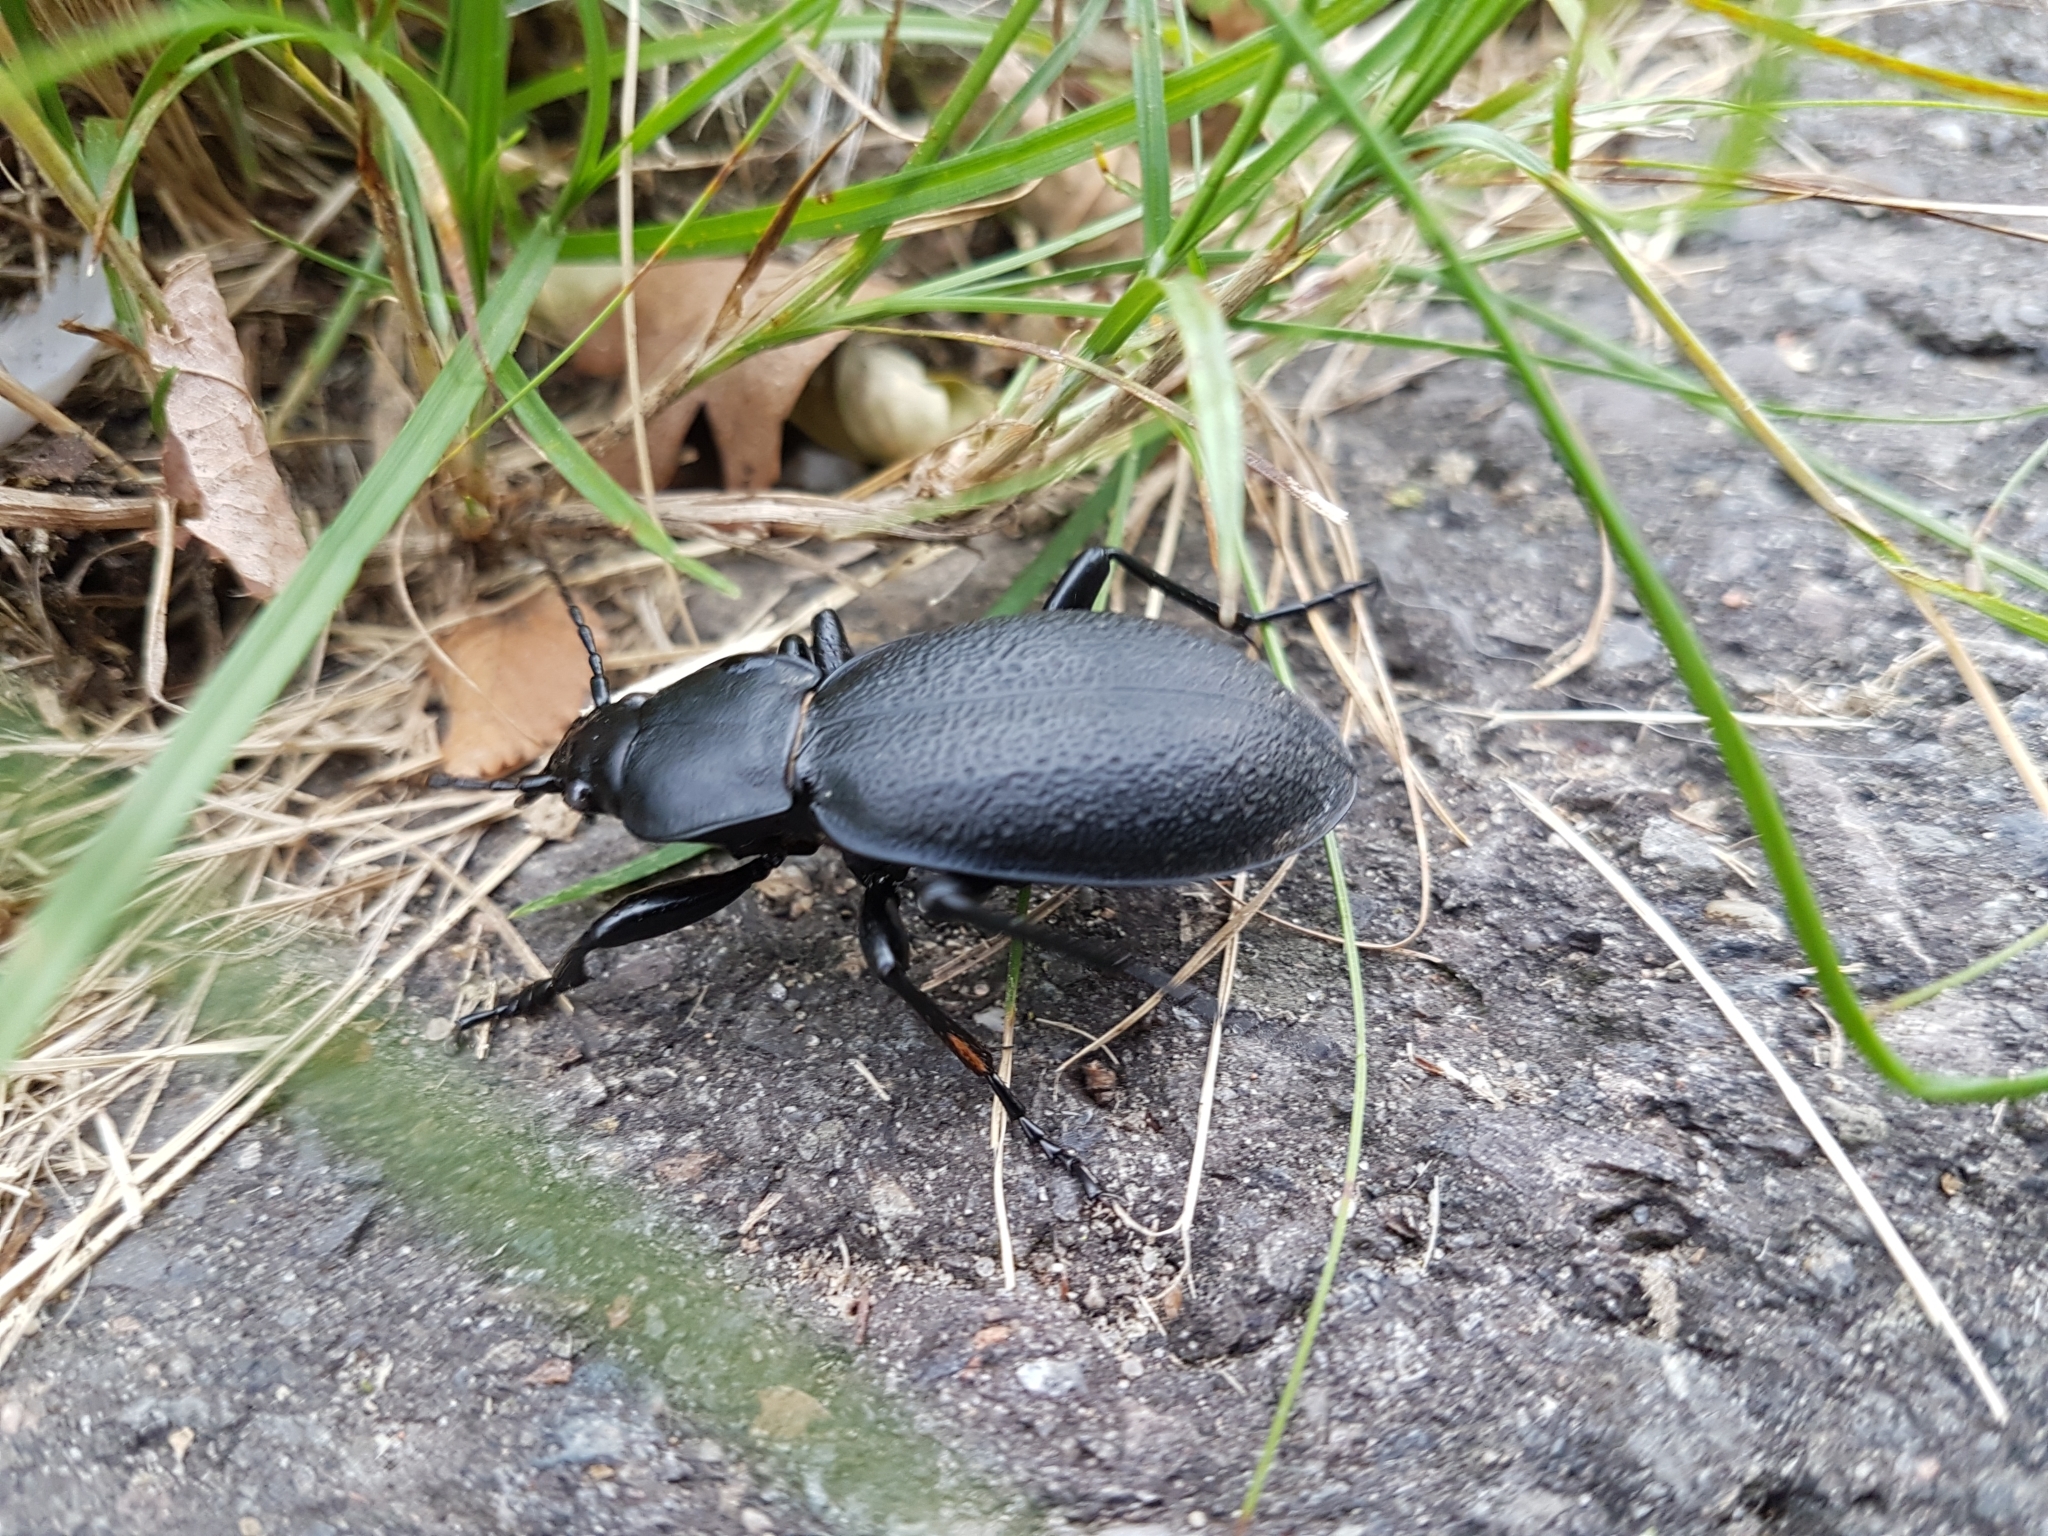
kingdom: Animalia
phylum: Arthropoda
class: Insecta
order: Coleoptera
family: Carabidae
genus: Carabus
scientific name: Carabus coriaceus
